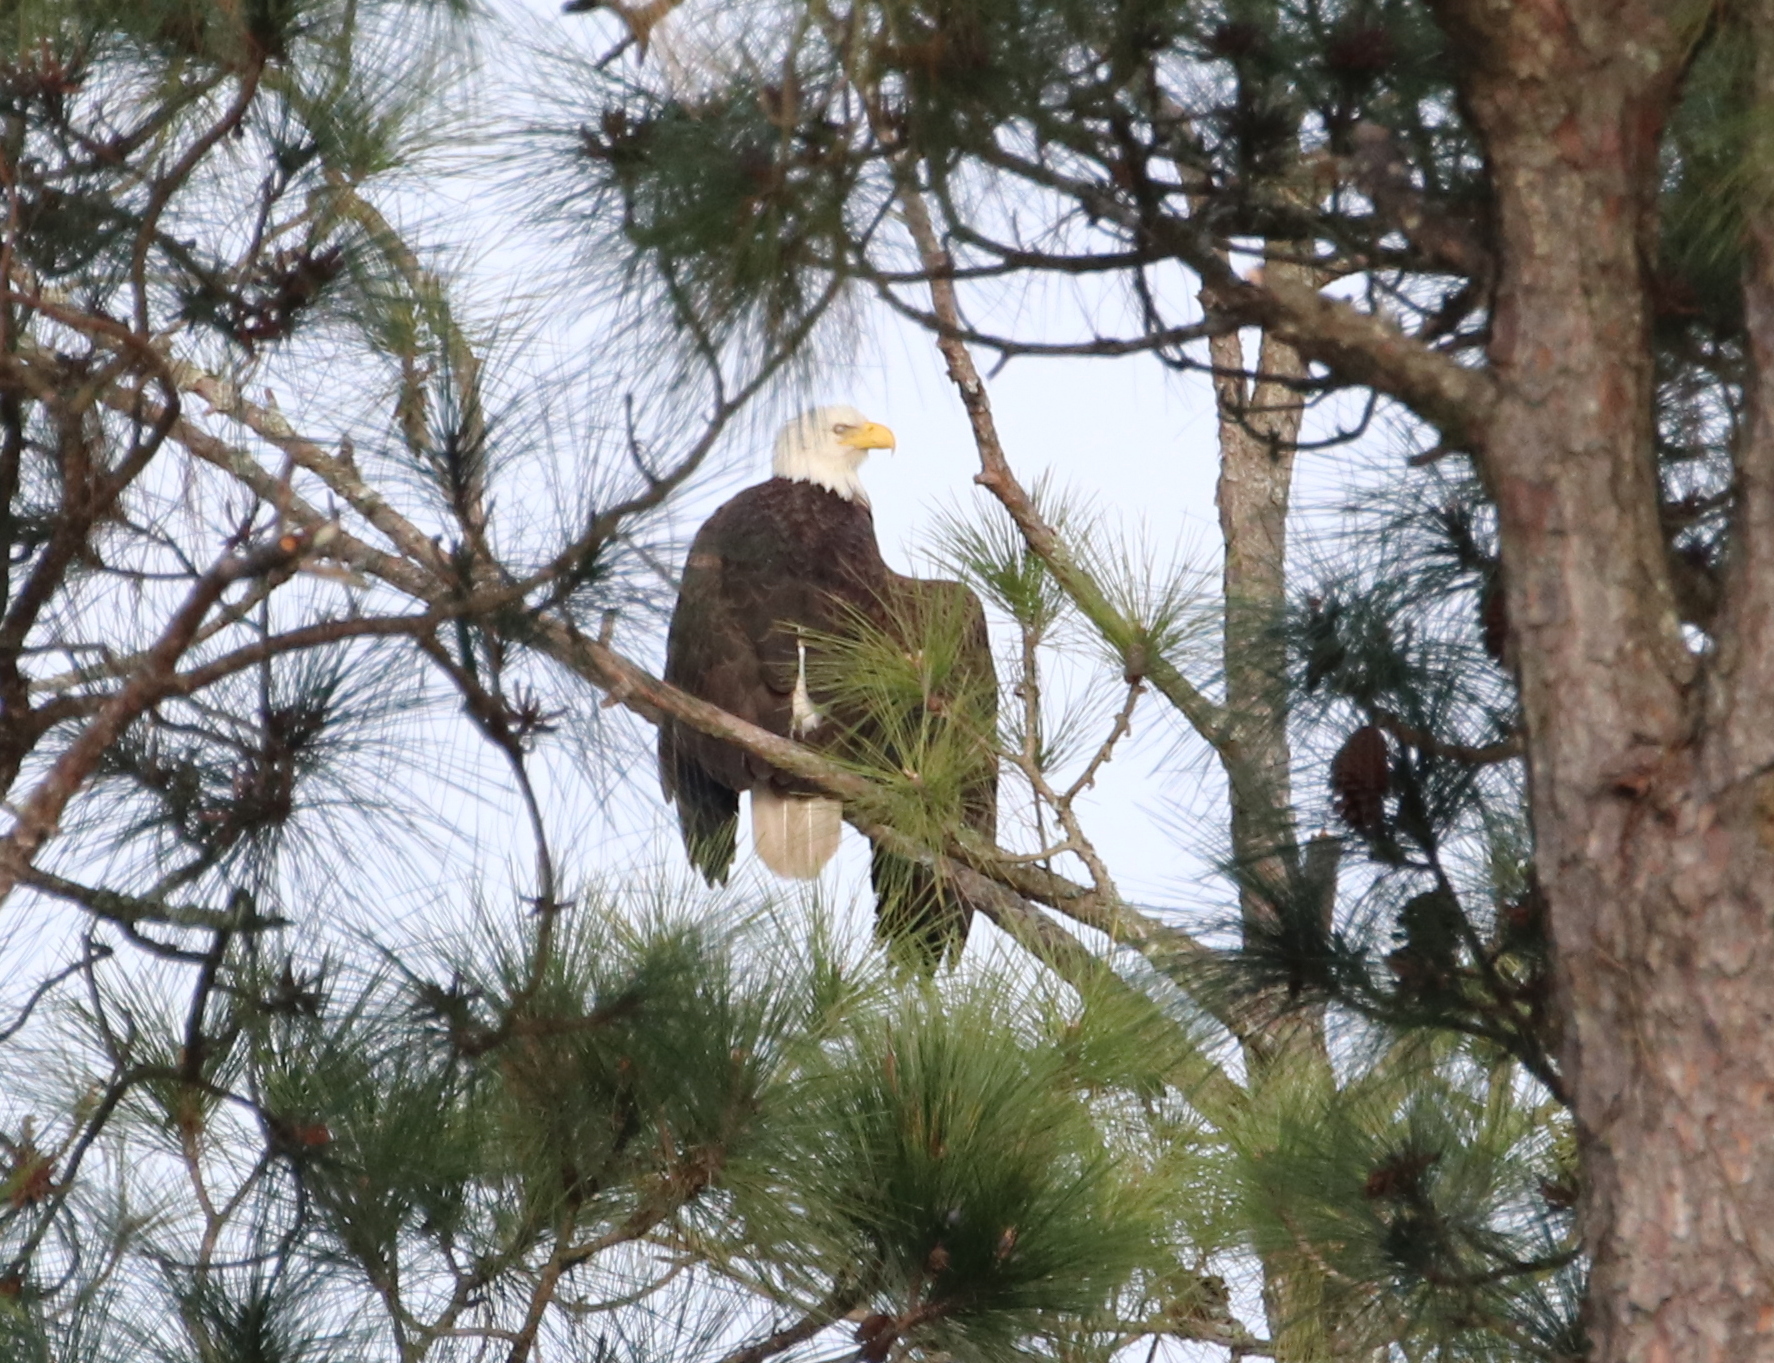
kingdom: Animalia
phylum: Chordata
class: Aves
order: Accipitriformes
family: Accipitridae
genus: Haliaeetus
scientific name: Haliaeetus leucocephalus
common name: Bald eagle
